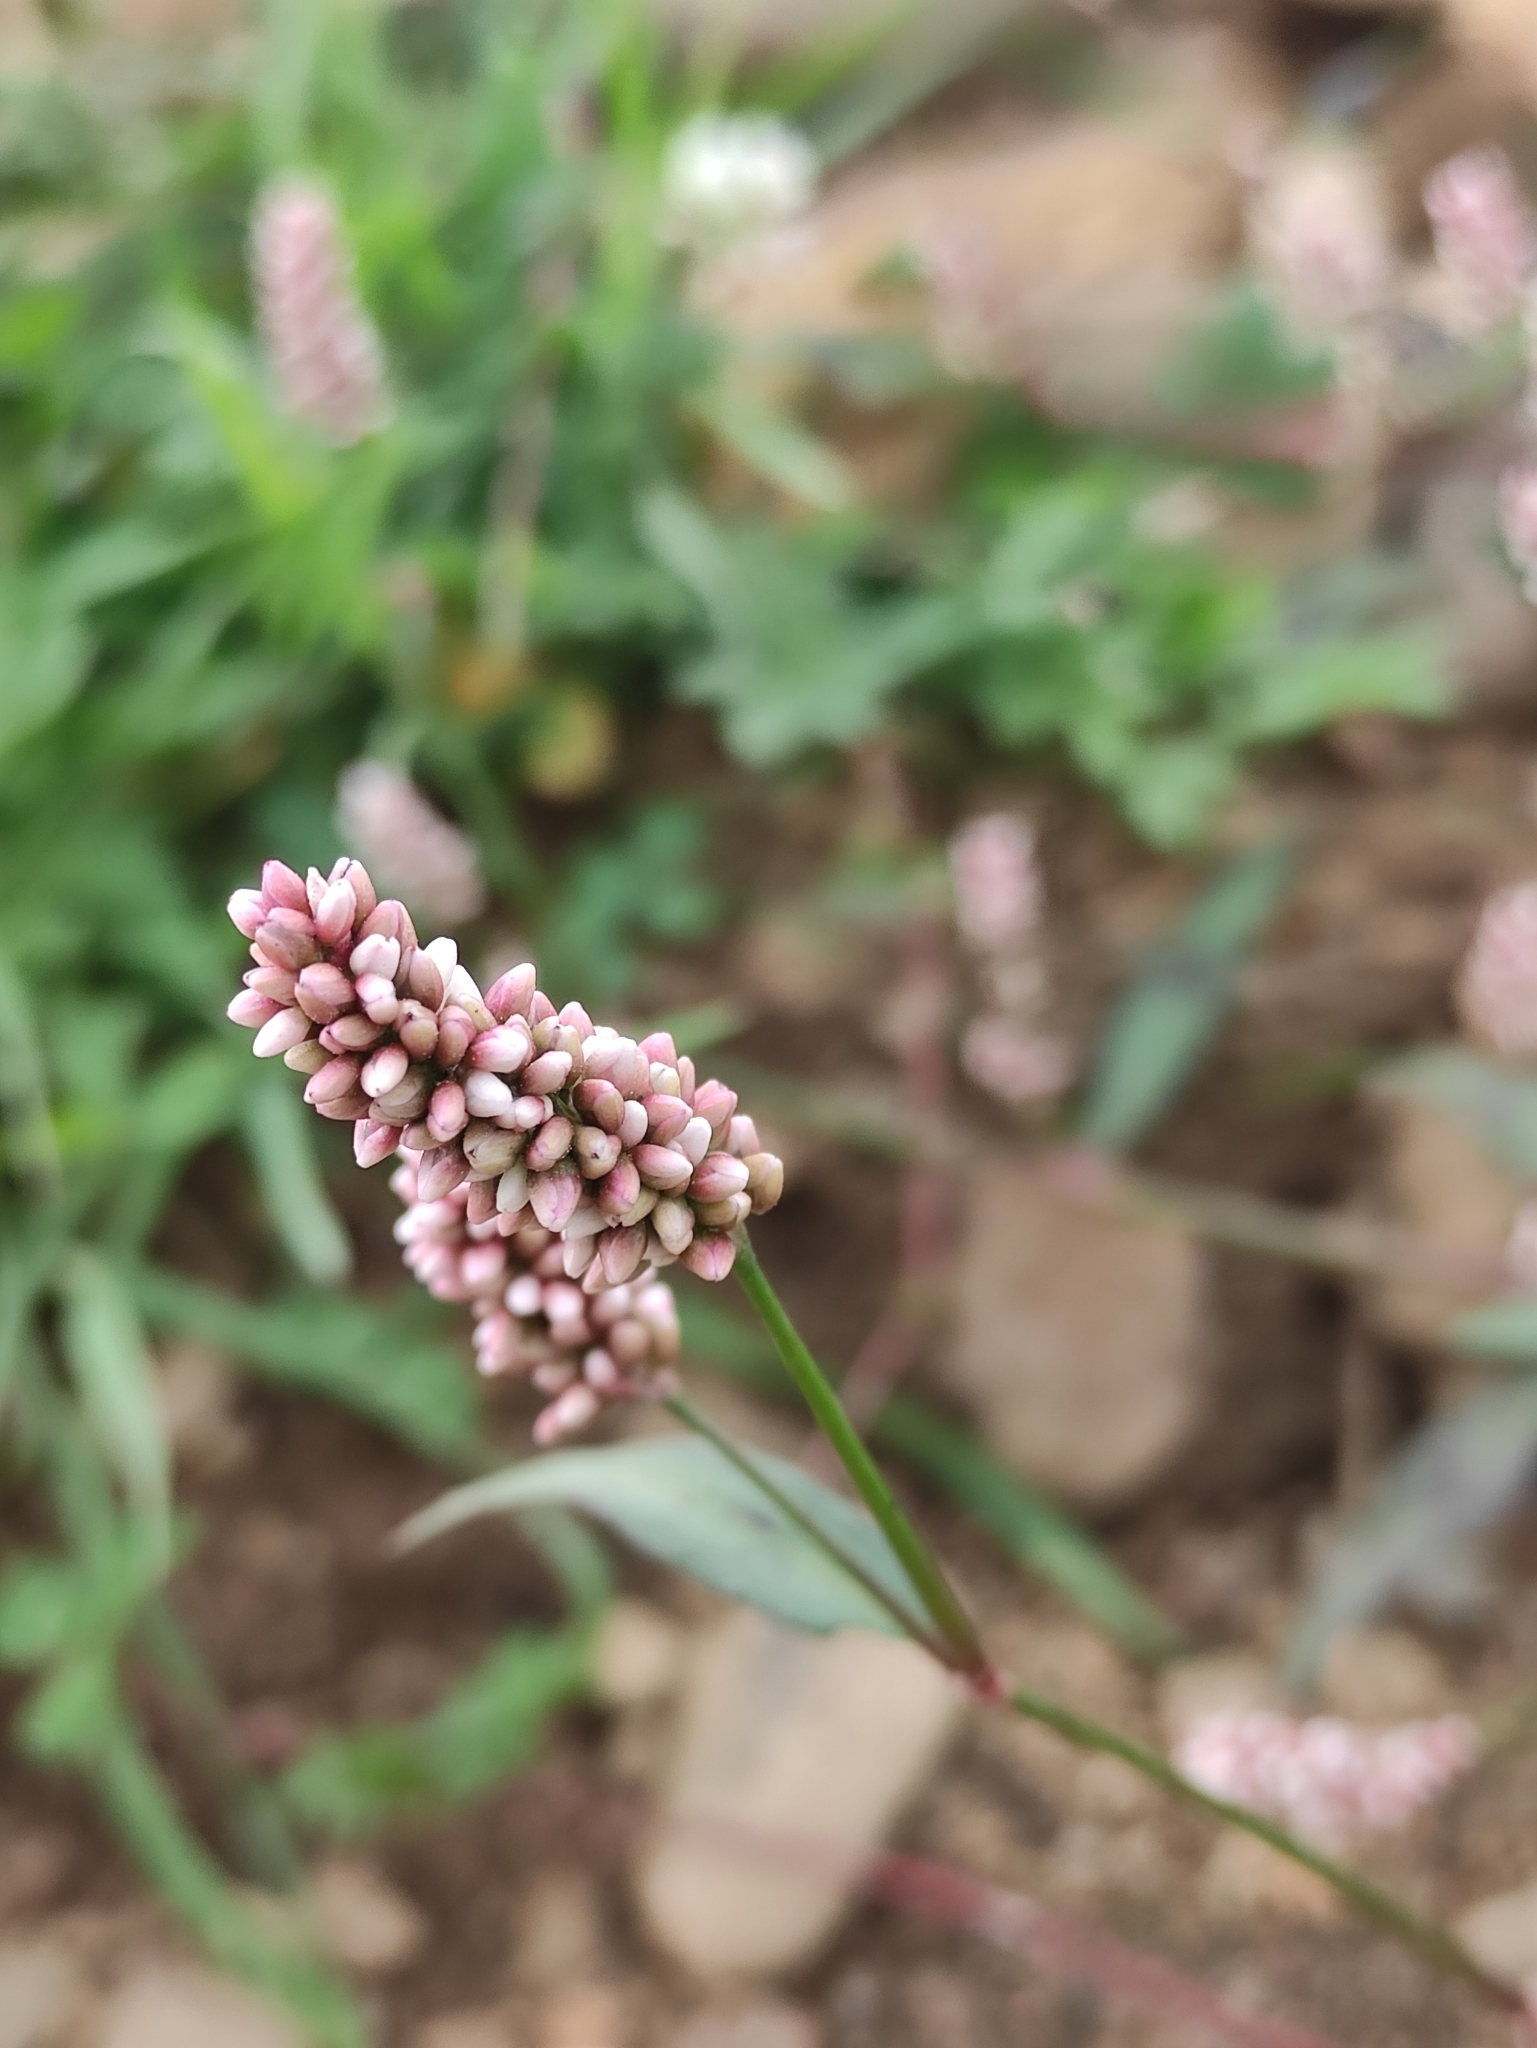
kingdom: Plantae
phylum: Tracheophyta
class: Magnoliopsida
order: Caryophyllales
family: Polygonaceae
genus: Persicaria
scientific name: Persicaria maculosa
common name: Redshank
